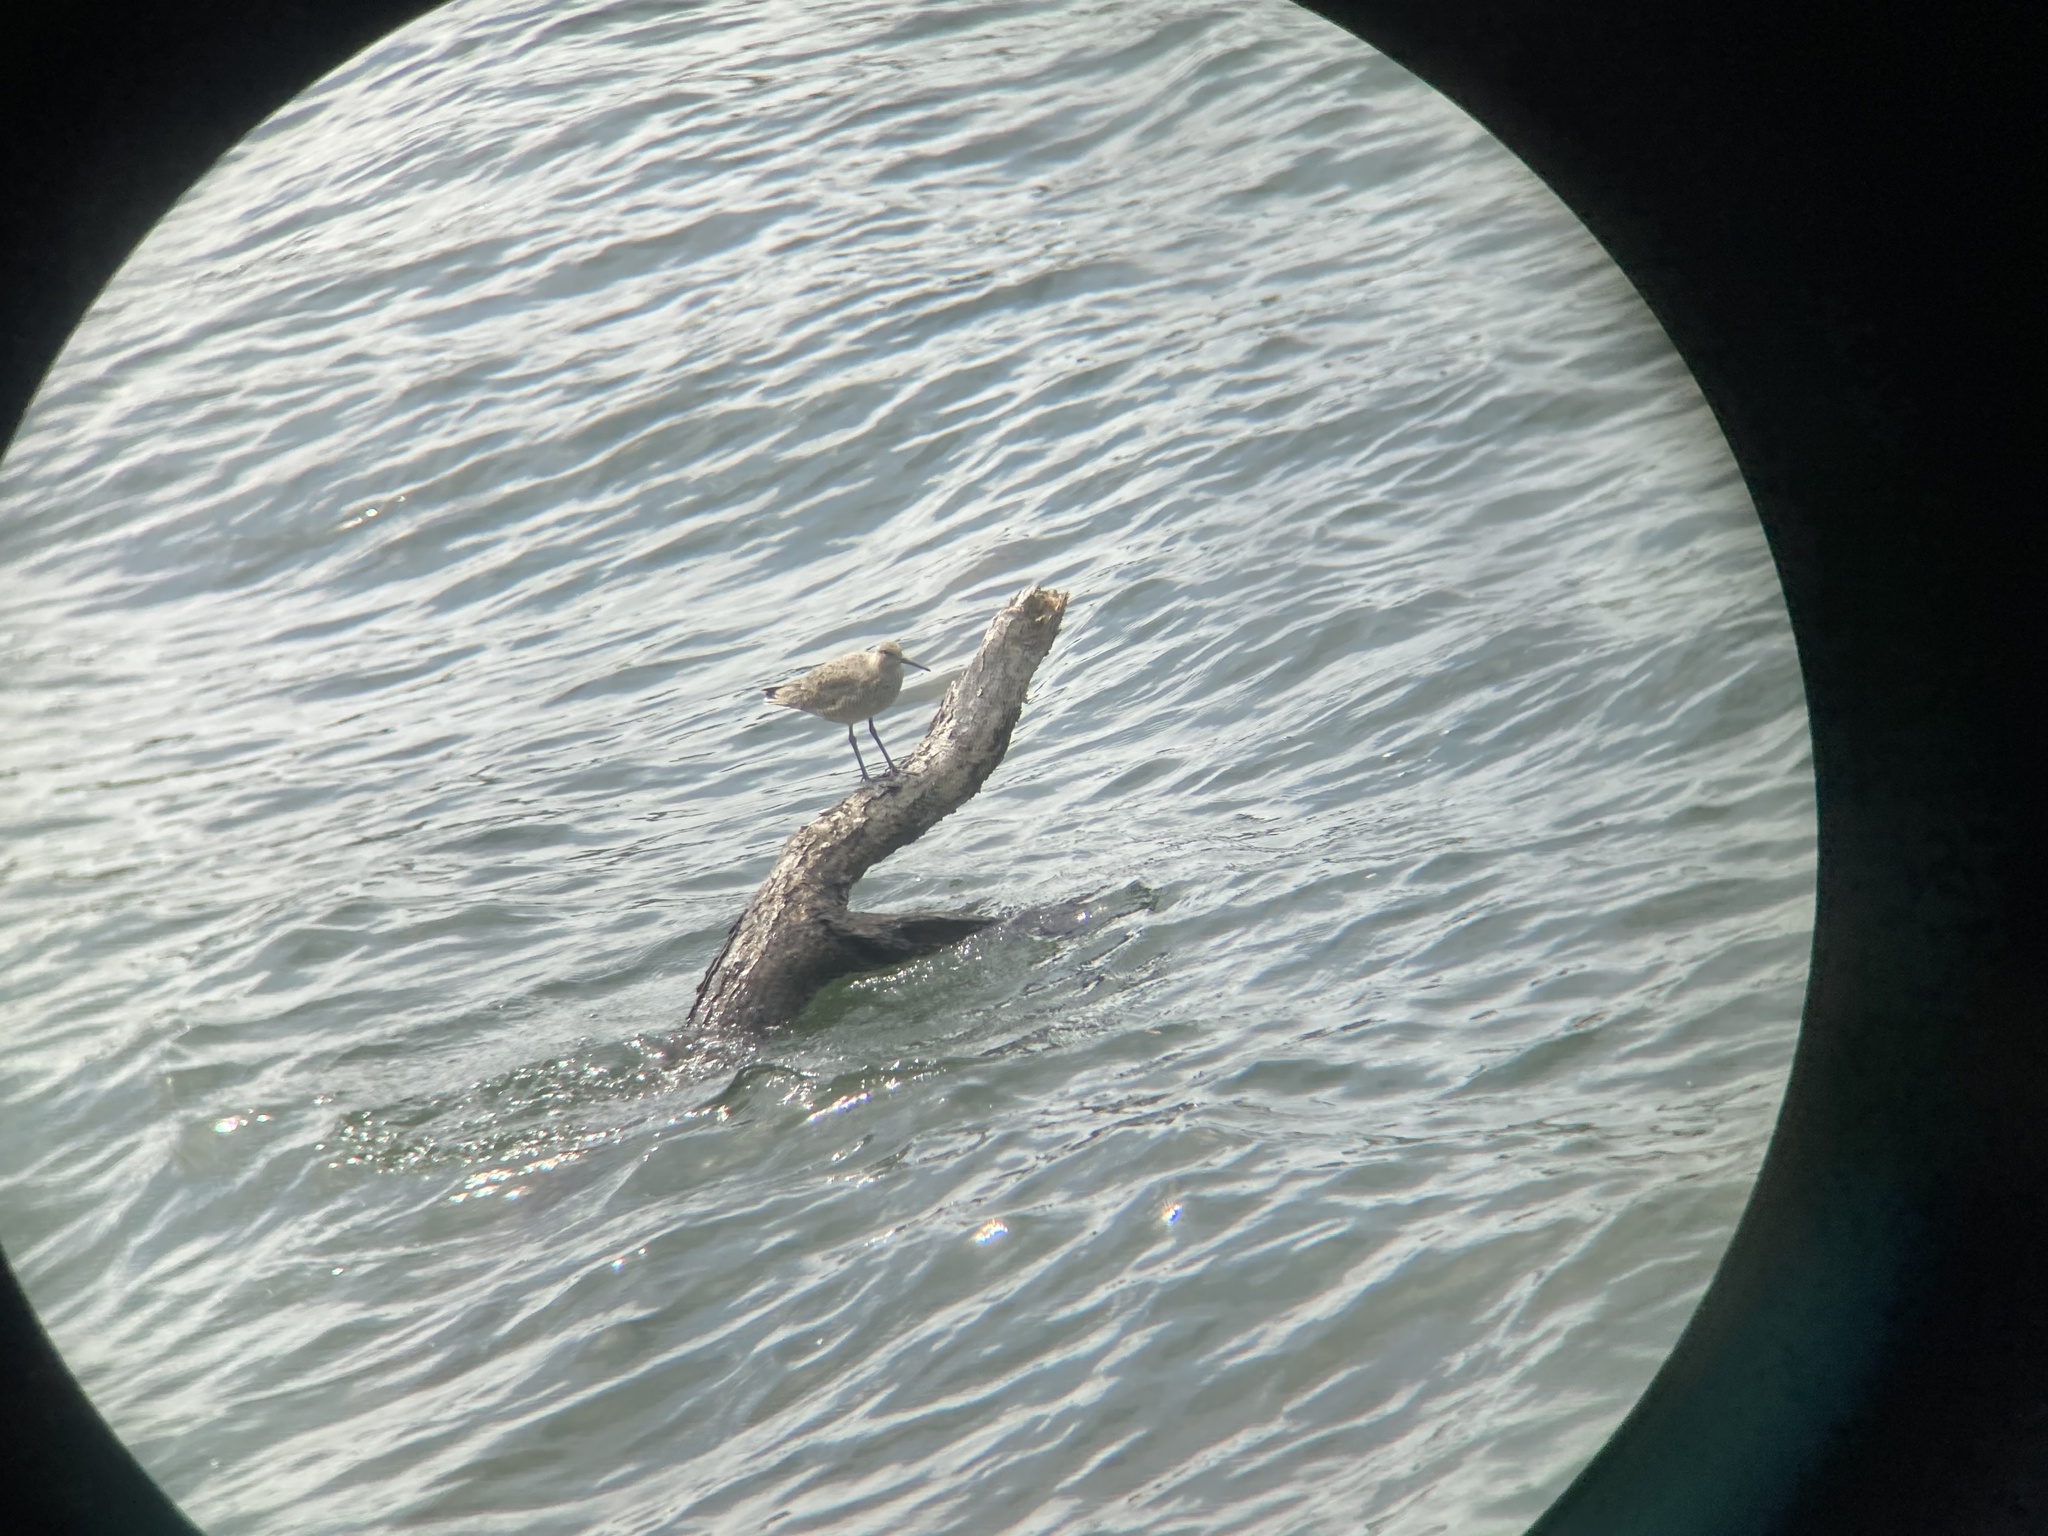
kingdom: Animalia
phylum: Chordata
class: Aves
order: Charadriiformes
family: Scolopacidae
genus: Tringa
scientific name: Tringa semipalmata
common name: Willet
